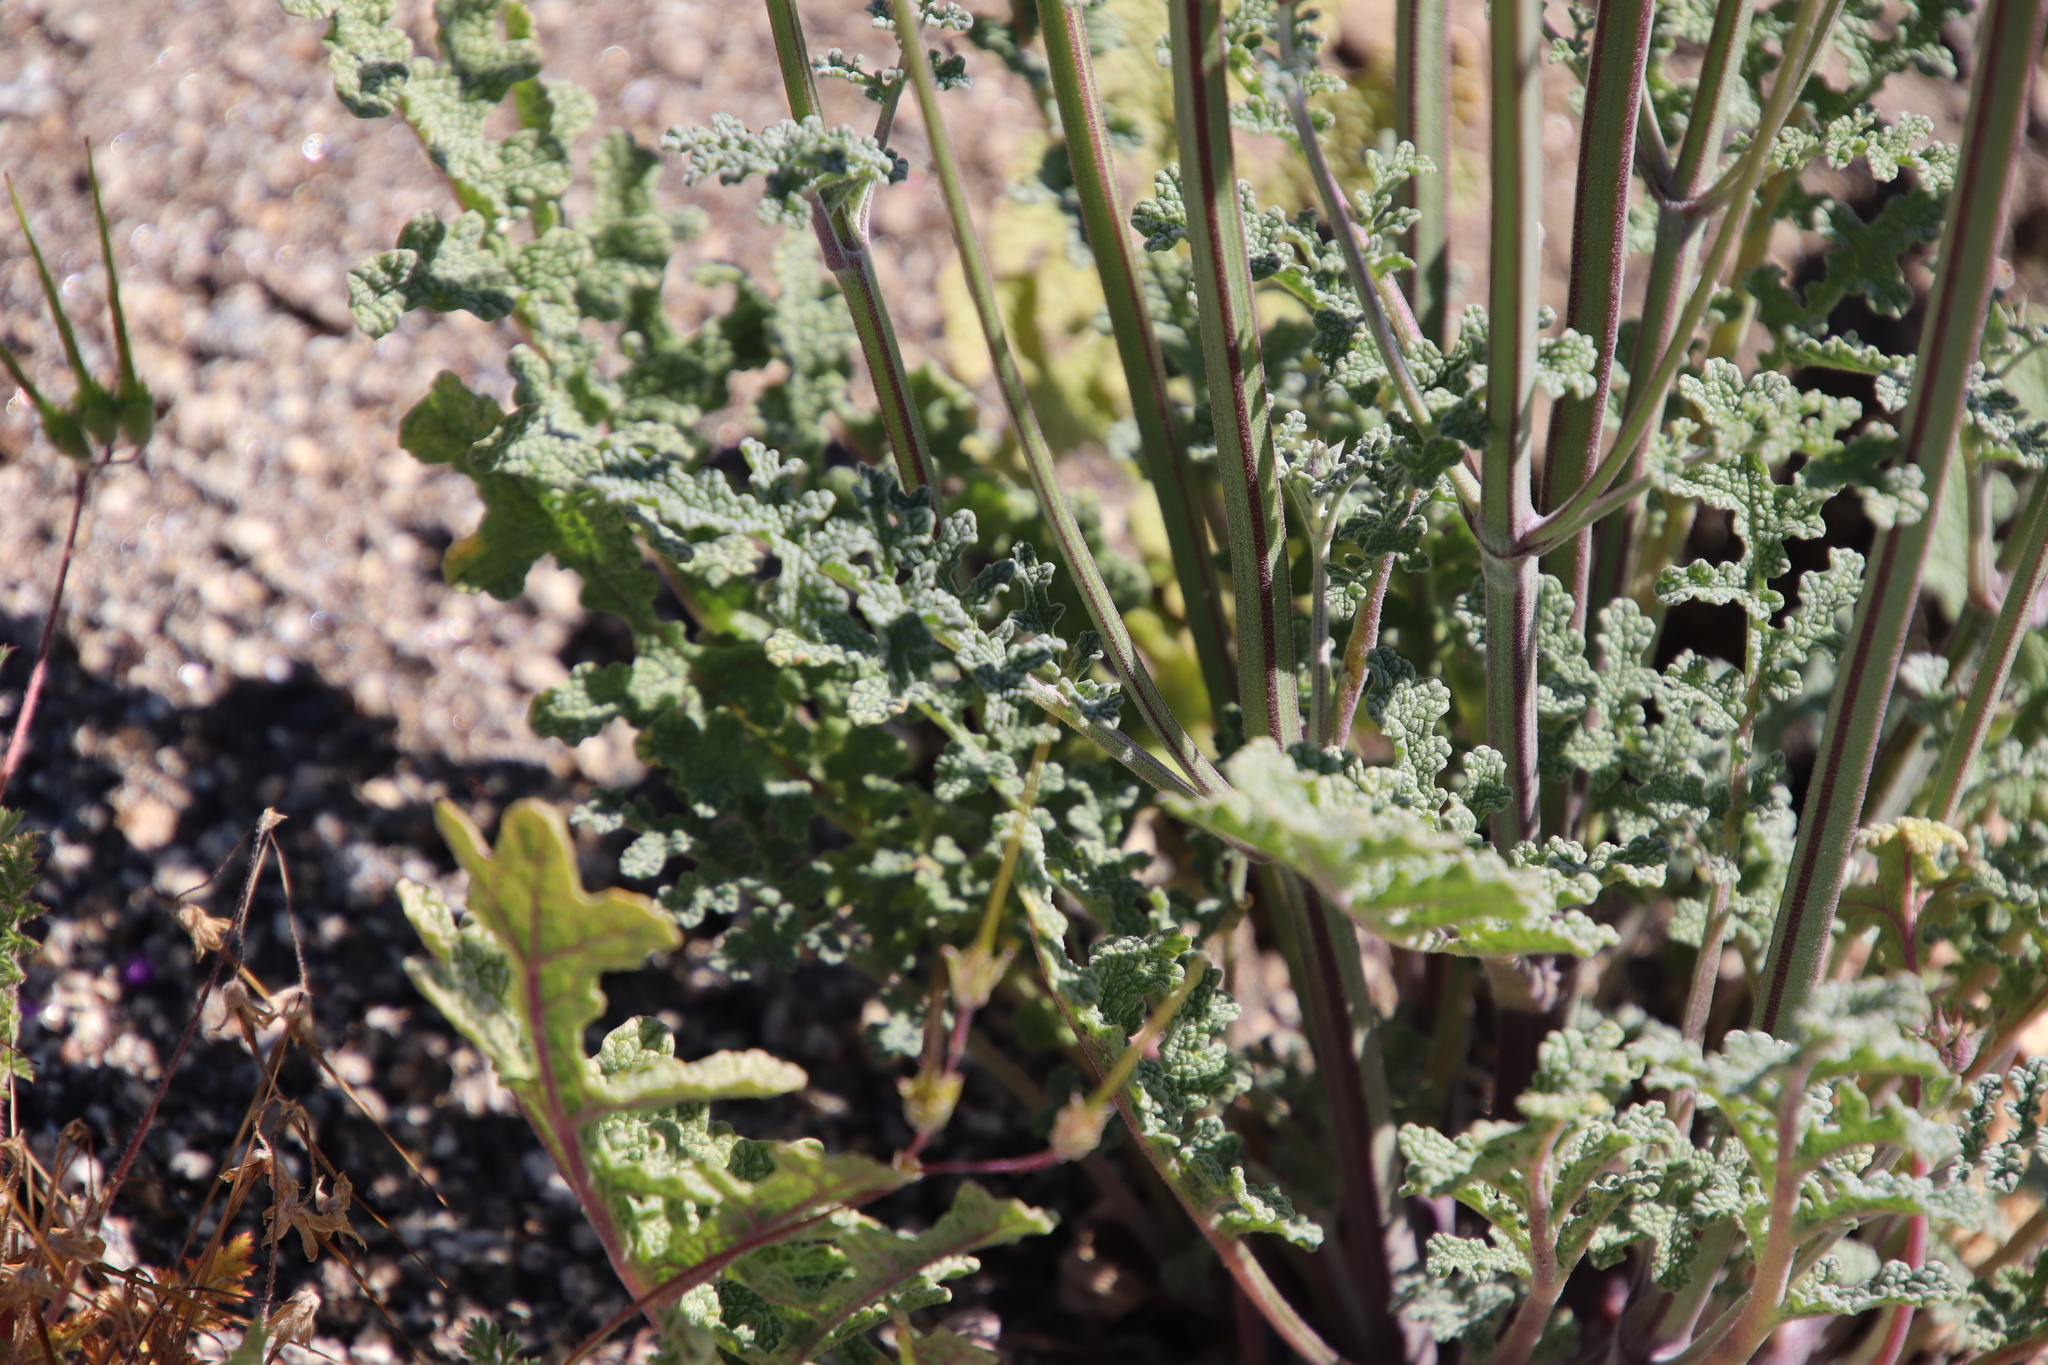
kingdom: Plantae
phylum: Tracheophyta
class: Magnoliopsida
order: Lamiales
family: Lamiaceae
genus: Salvia
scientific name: Salvia columbariae
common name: Chia
